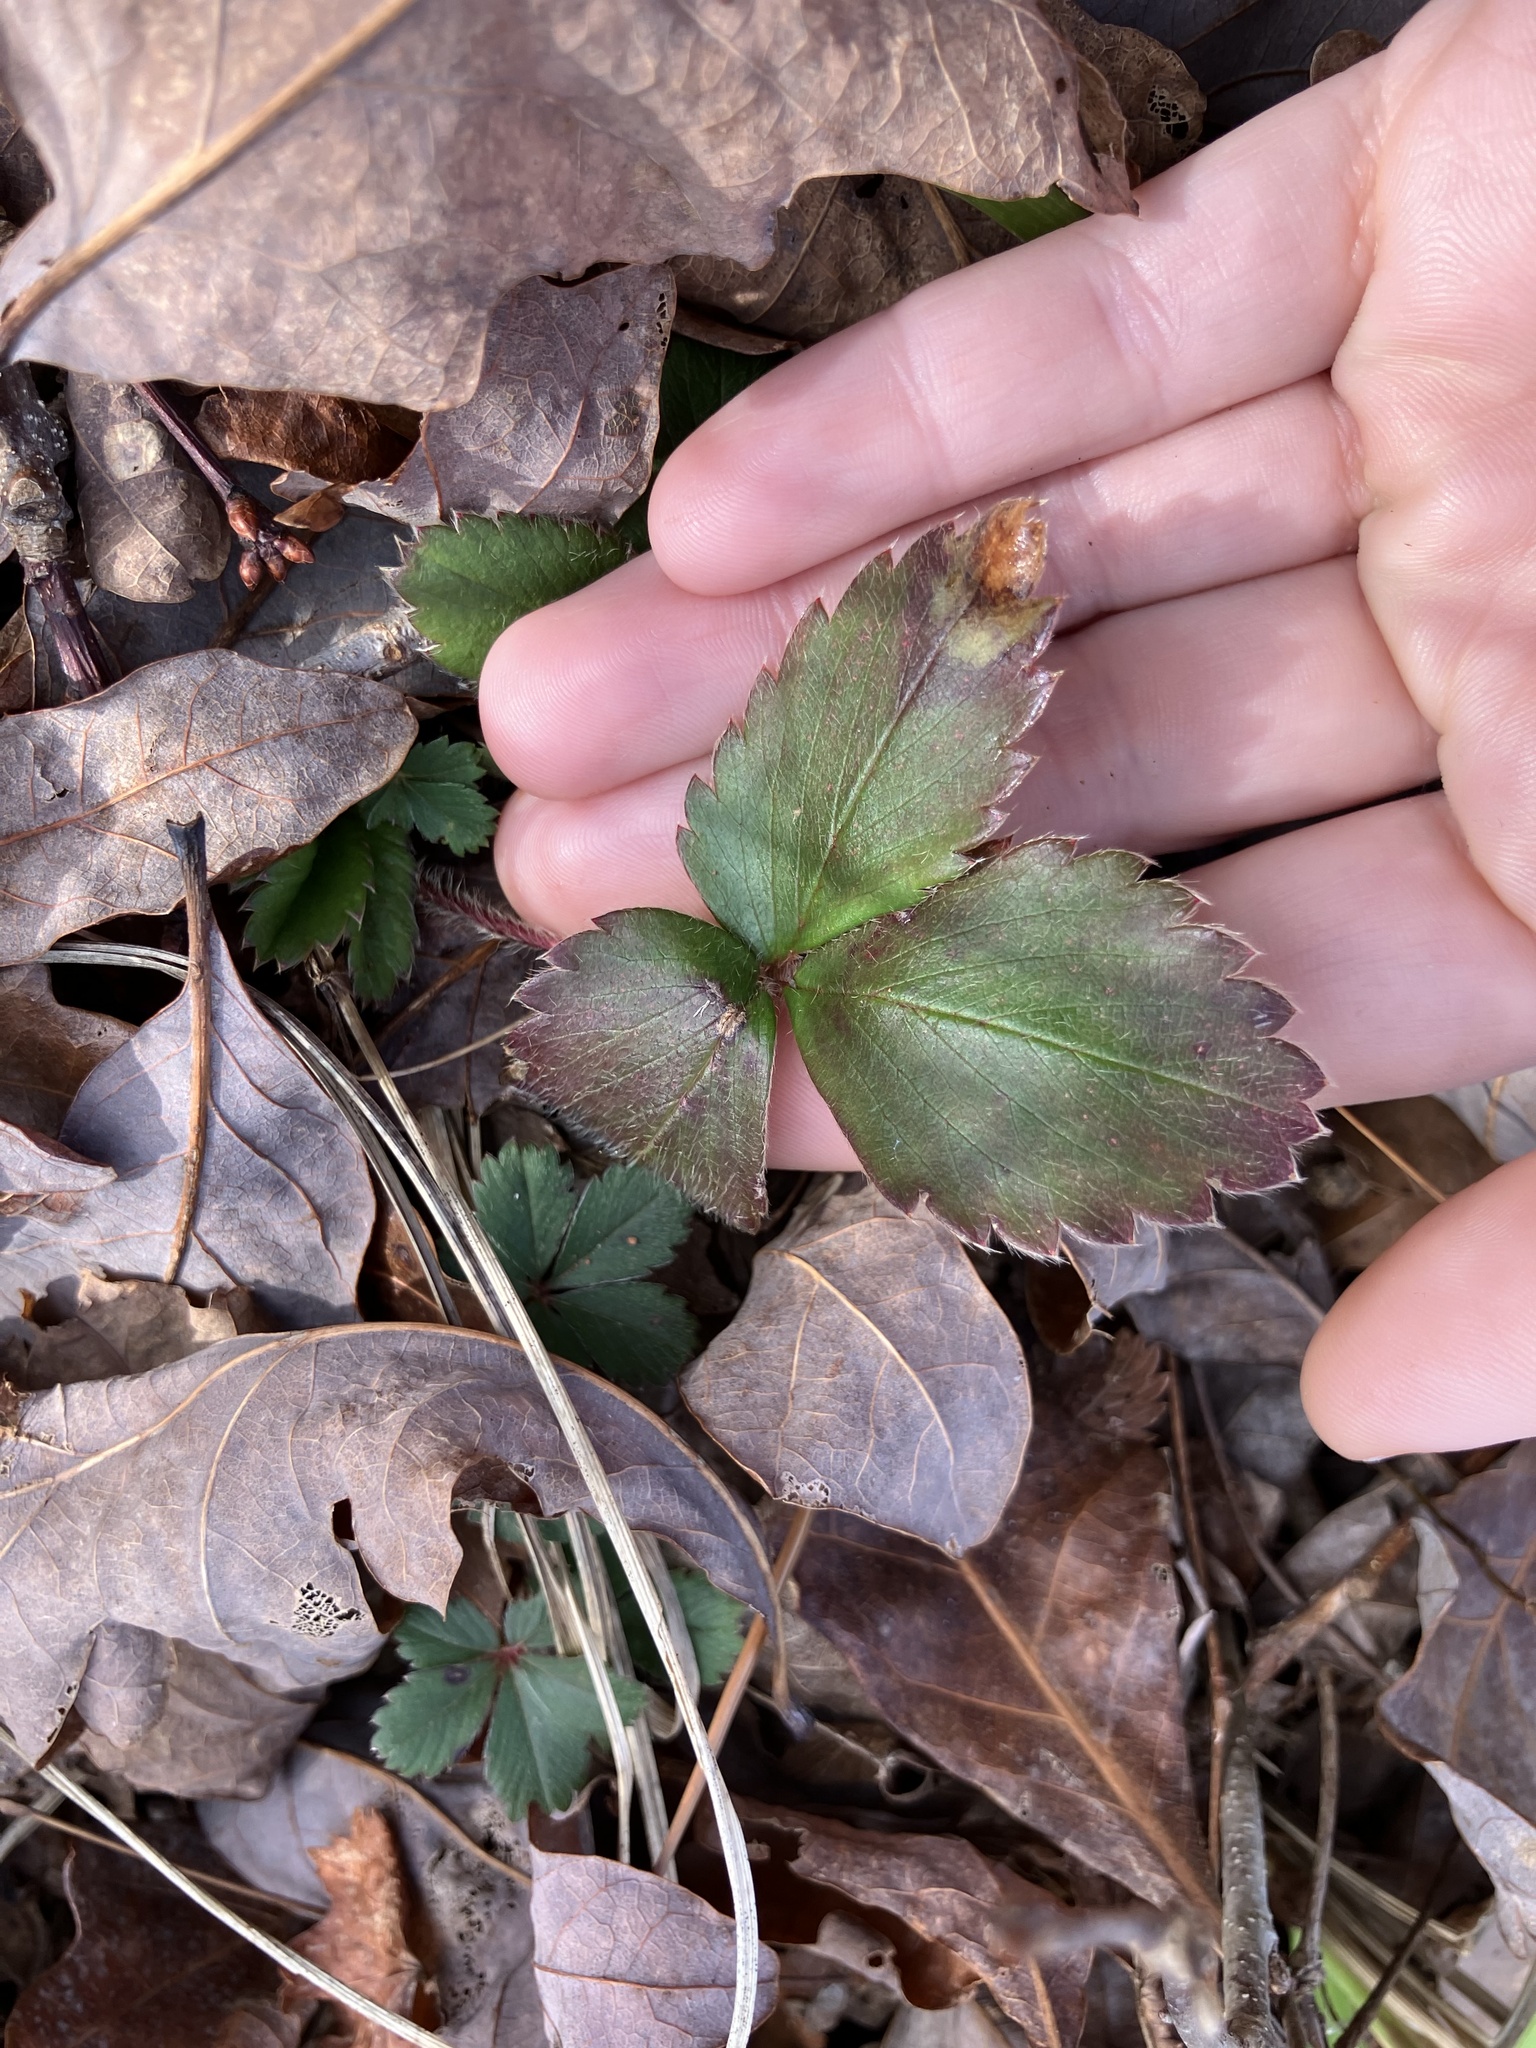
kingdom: Plantae
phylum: Tracheophyta
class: Magnoliopsida
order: Rosales
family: Rosaceae
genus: Fragaria
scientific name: Fragaria virginiana
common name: Thickleaved wild strawberry
